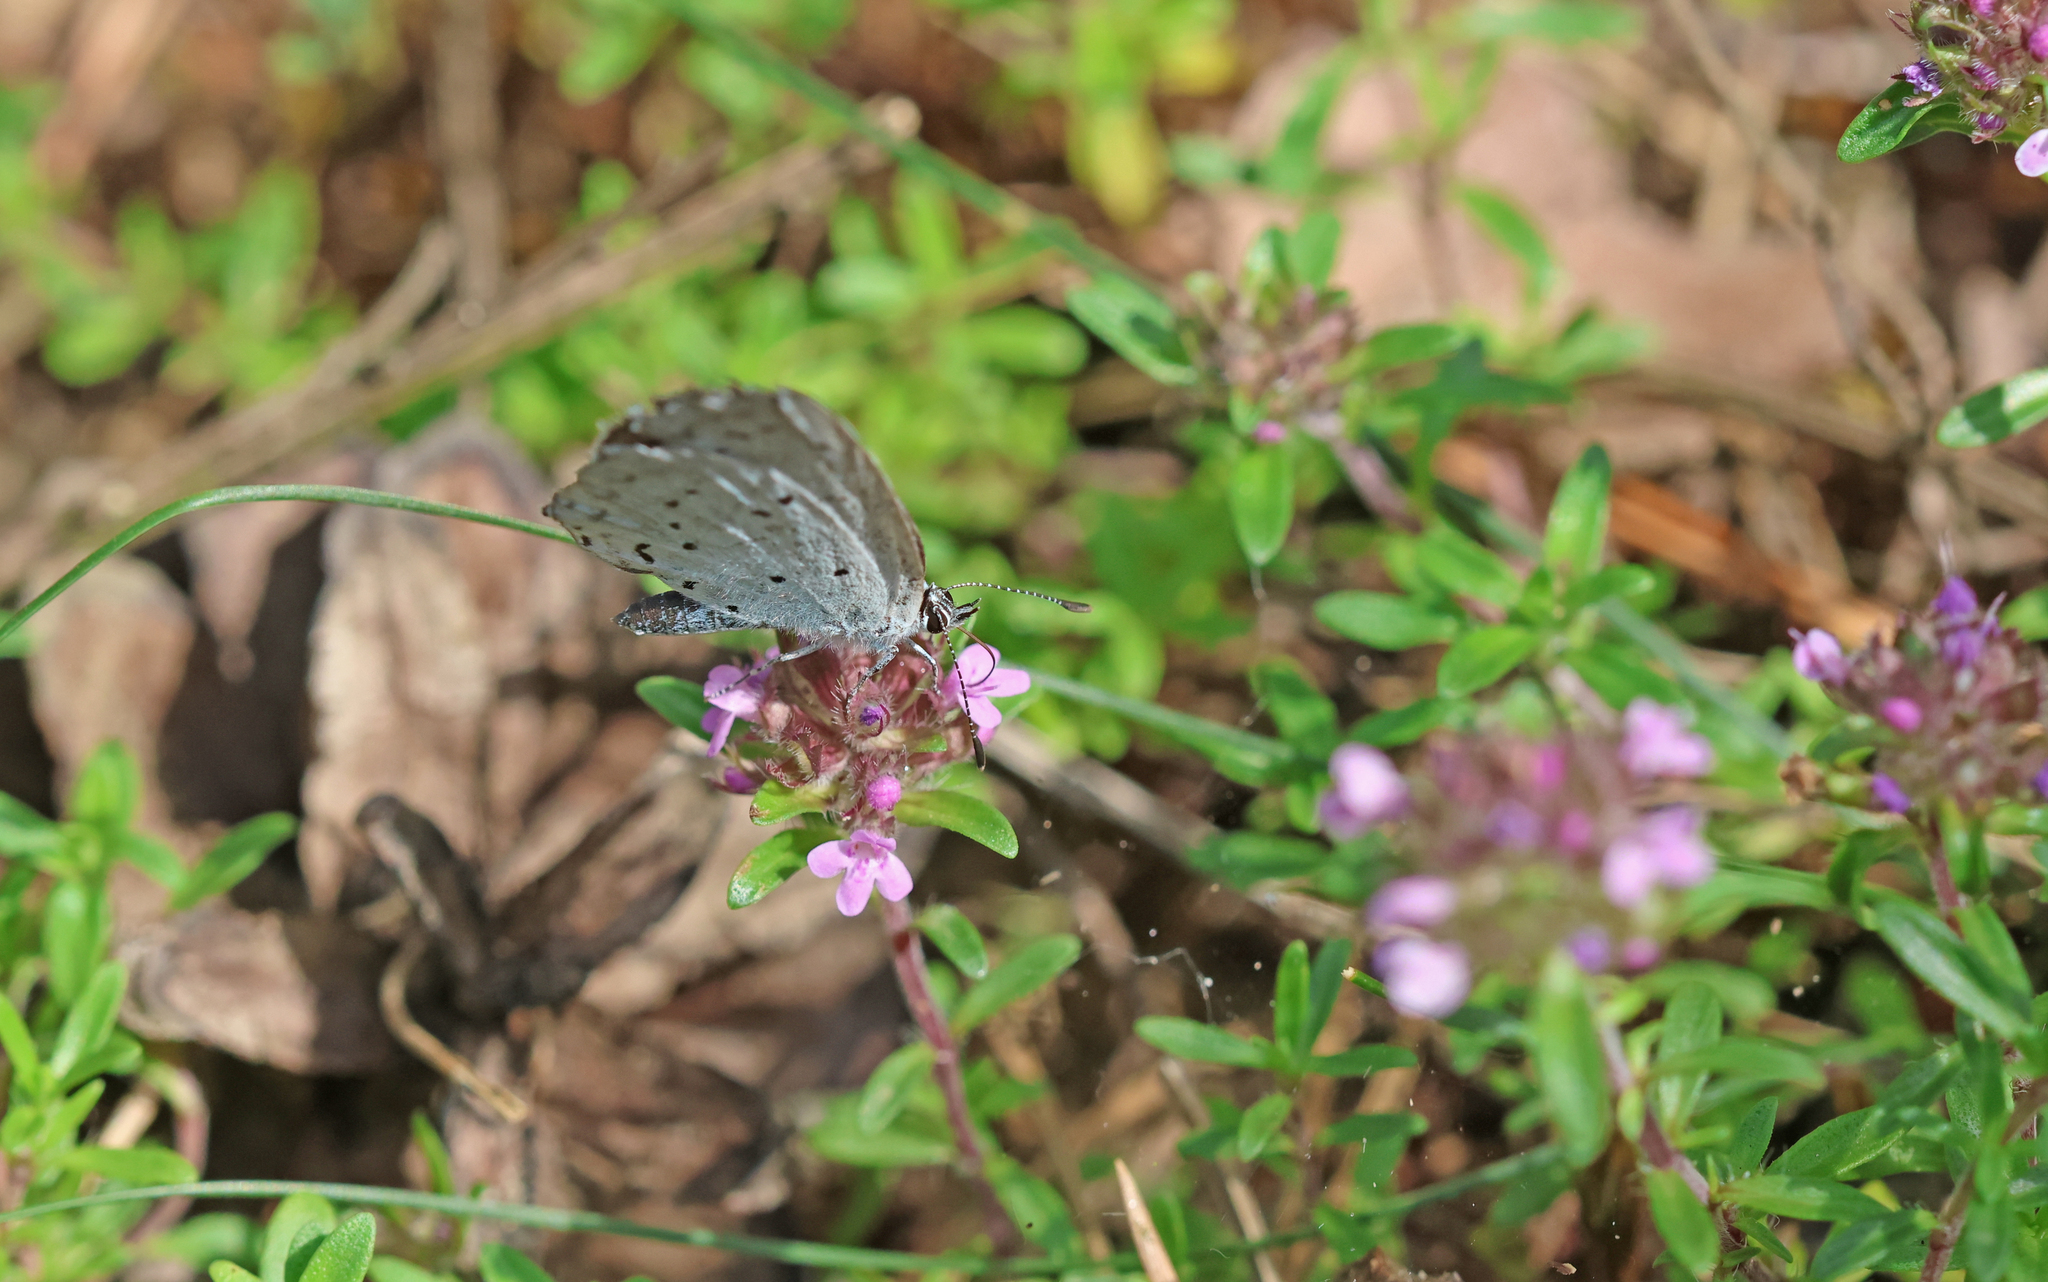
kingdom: Animalia
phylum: Arthropoda
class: Insecta
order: Lepidoptera
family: Lycaenidae
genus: Celastrina
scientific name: Celastrina argiolus
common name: Holly blue
